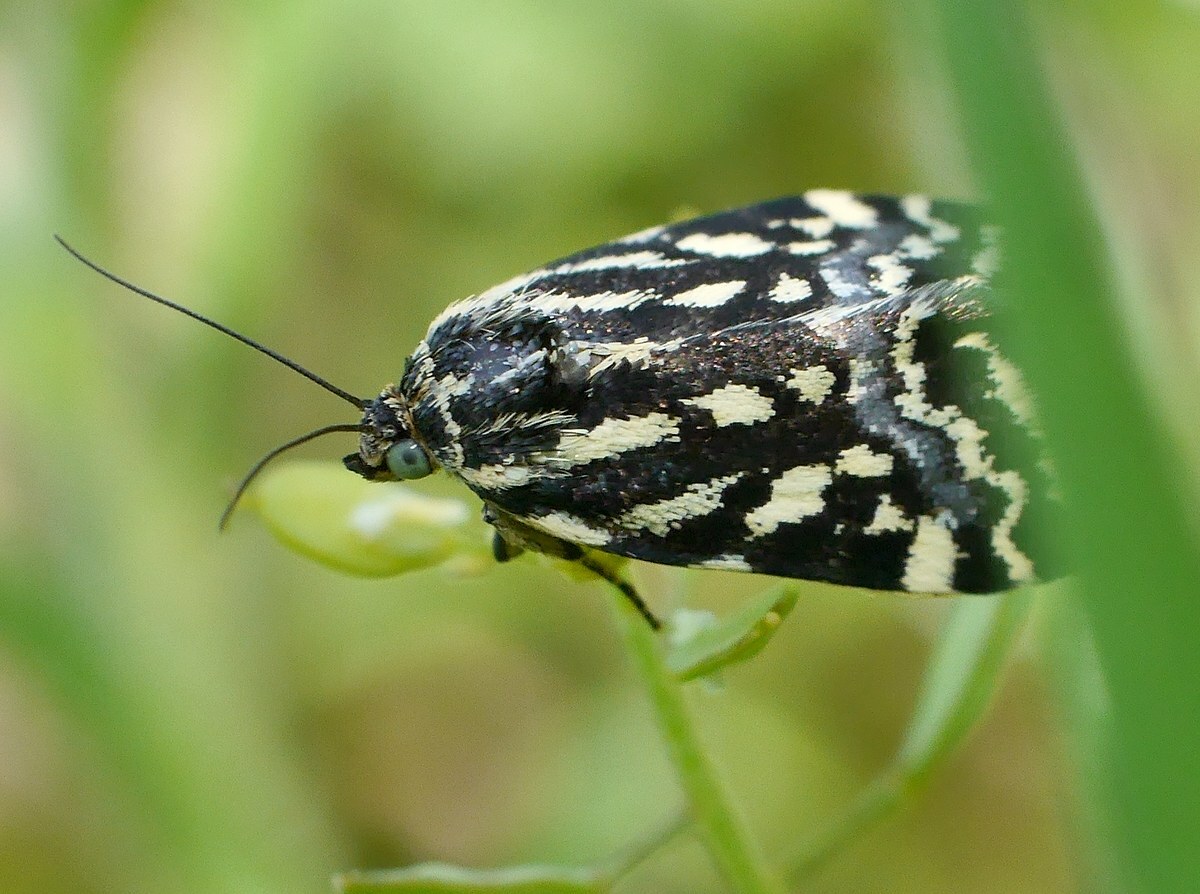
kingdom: Animalia
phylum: Arthropoda
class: Insecta
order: Lepidoptera
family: Noctuidae
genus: Acontia
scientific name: Acontia trabealis
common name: Spotted sulphur
